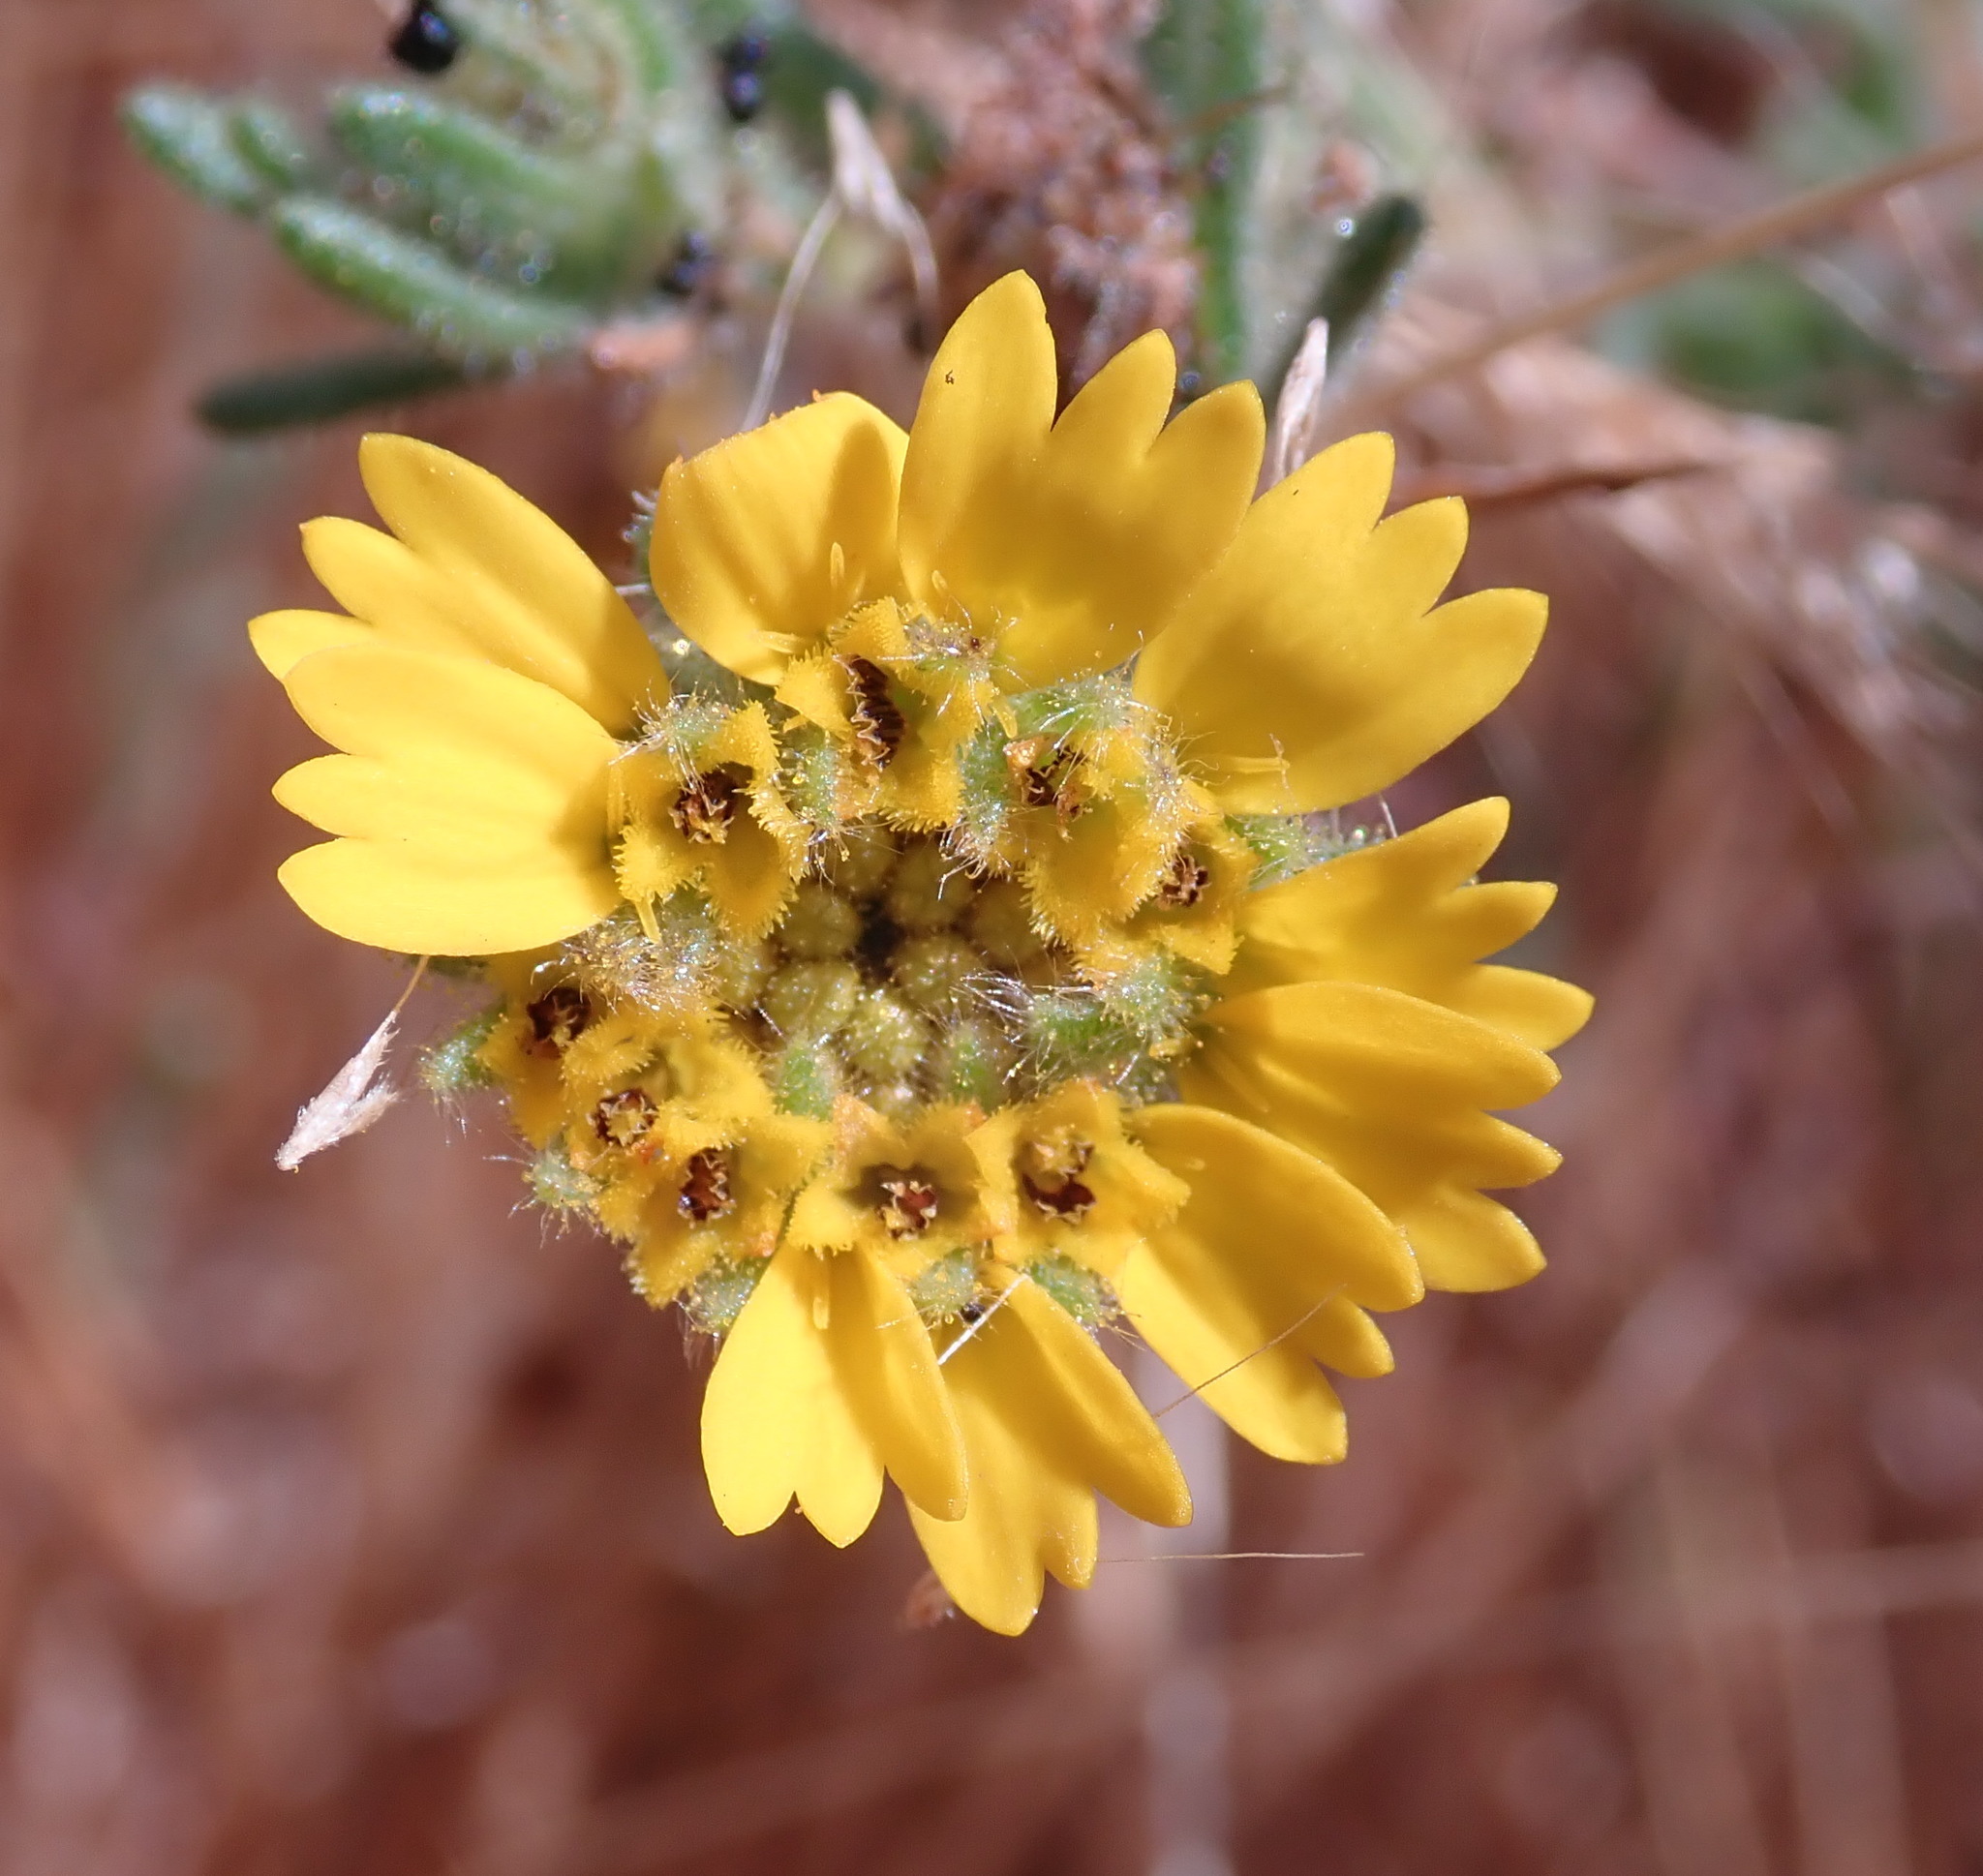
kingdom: Plantae
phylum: Tracheophyta
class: Magnoliopsida
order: Asterales
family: Asteraceae
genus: Deinandra
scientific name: Deinandra corymbosa
